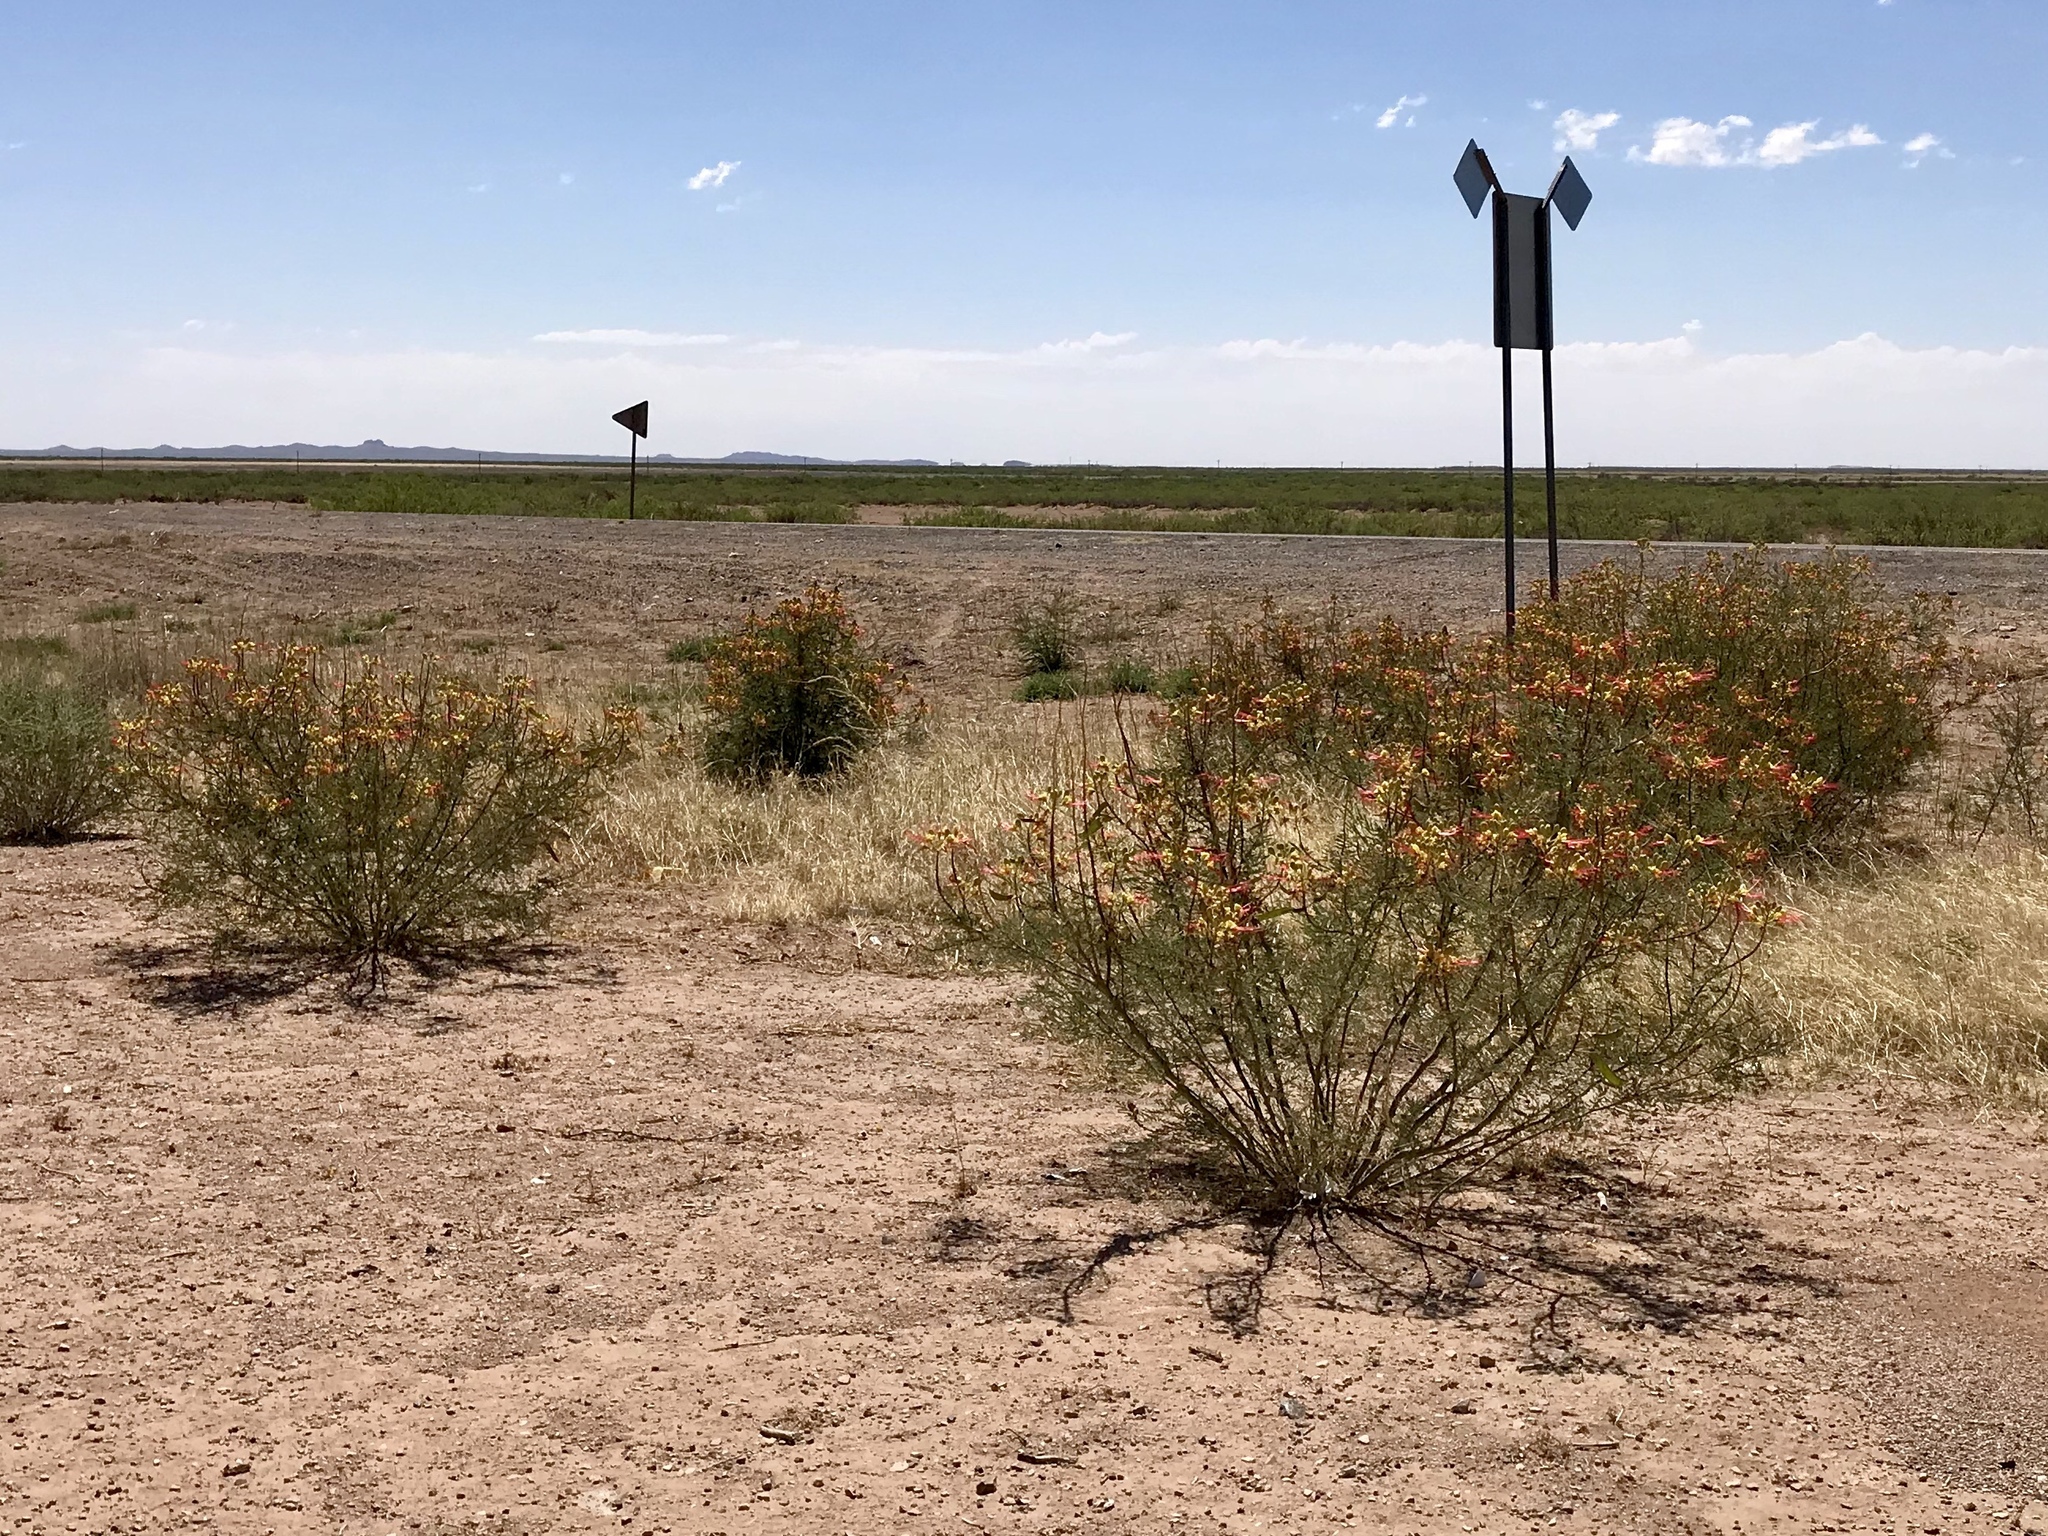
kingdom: Plantae
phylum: Tracheophyta
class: Magnoliopsida
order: Fabales
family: Fabaceae
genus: Erythrostemon
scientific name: Erythrostemon gilliesii
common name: Bird-of-paradise shrub
